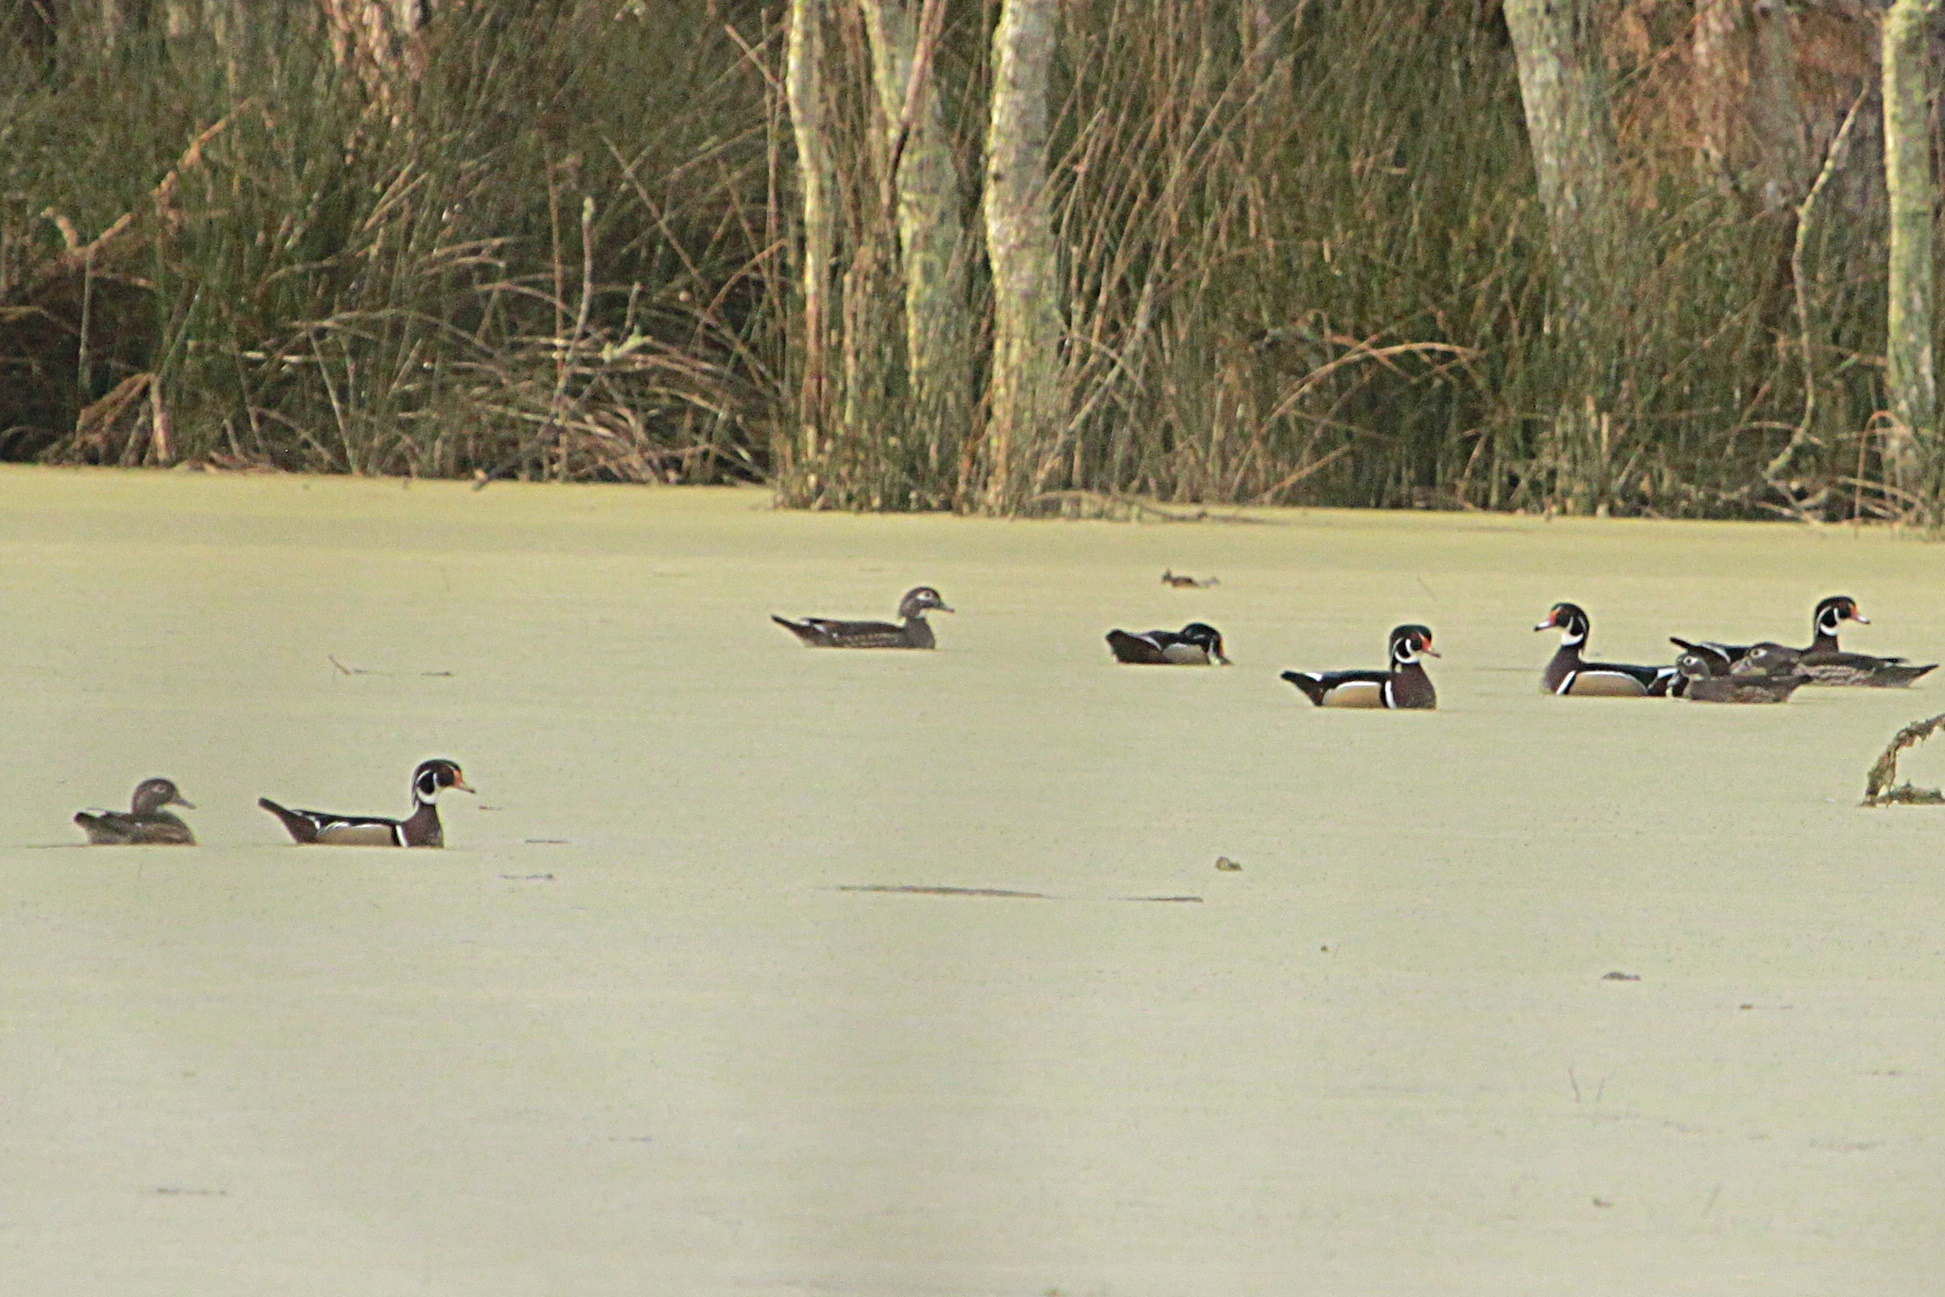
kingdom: Animalia
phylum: Chordata
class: Aves
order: Anseriformes
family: Anatidae
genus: Aix
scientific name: Aix sponsa
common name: Wood duck
